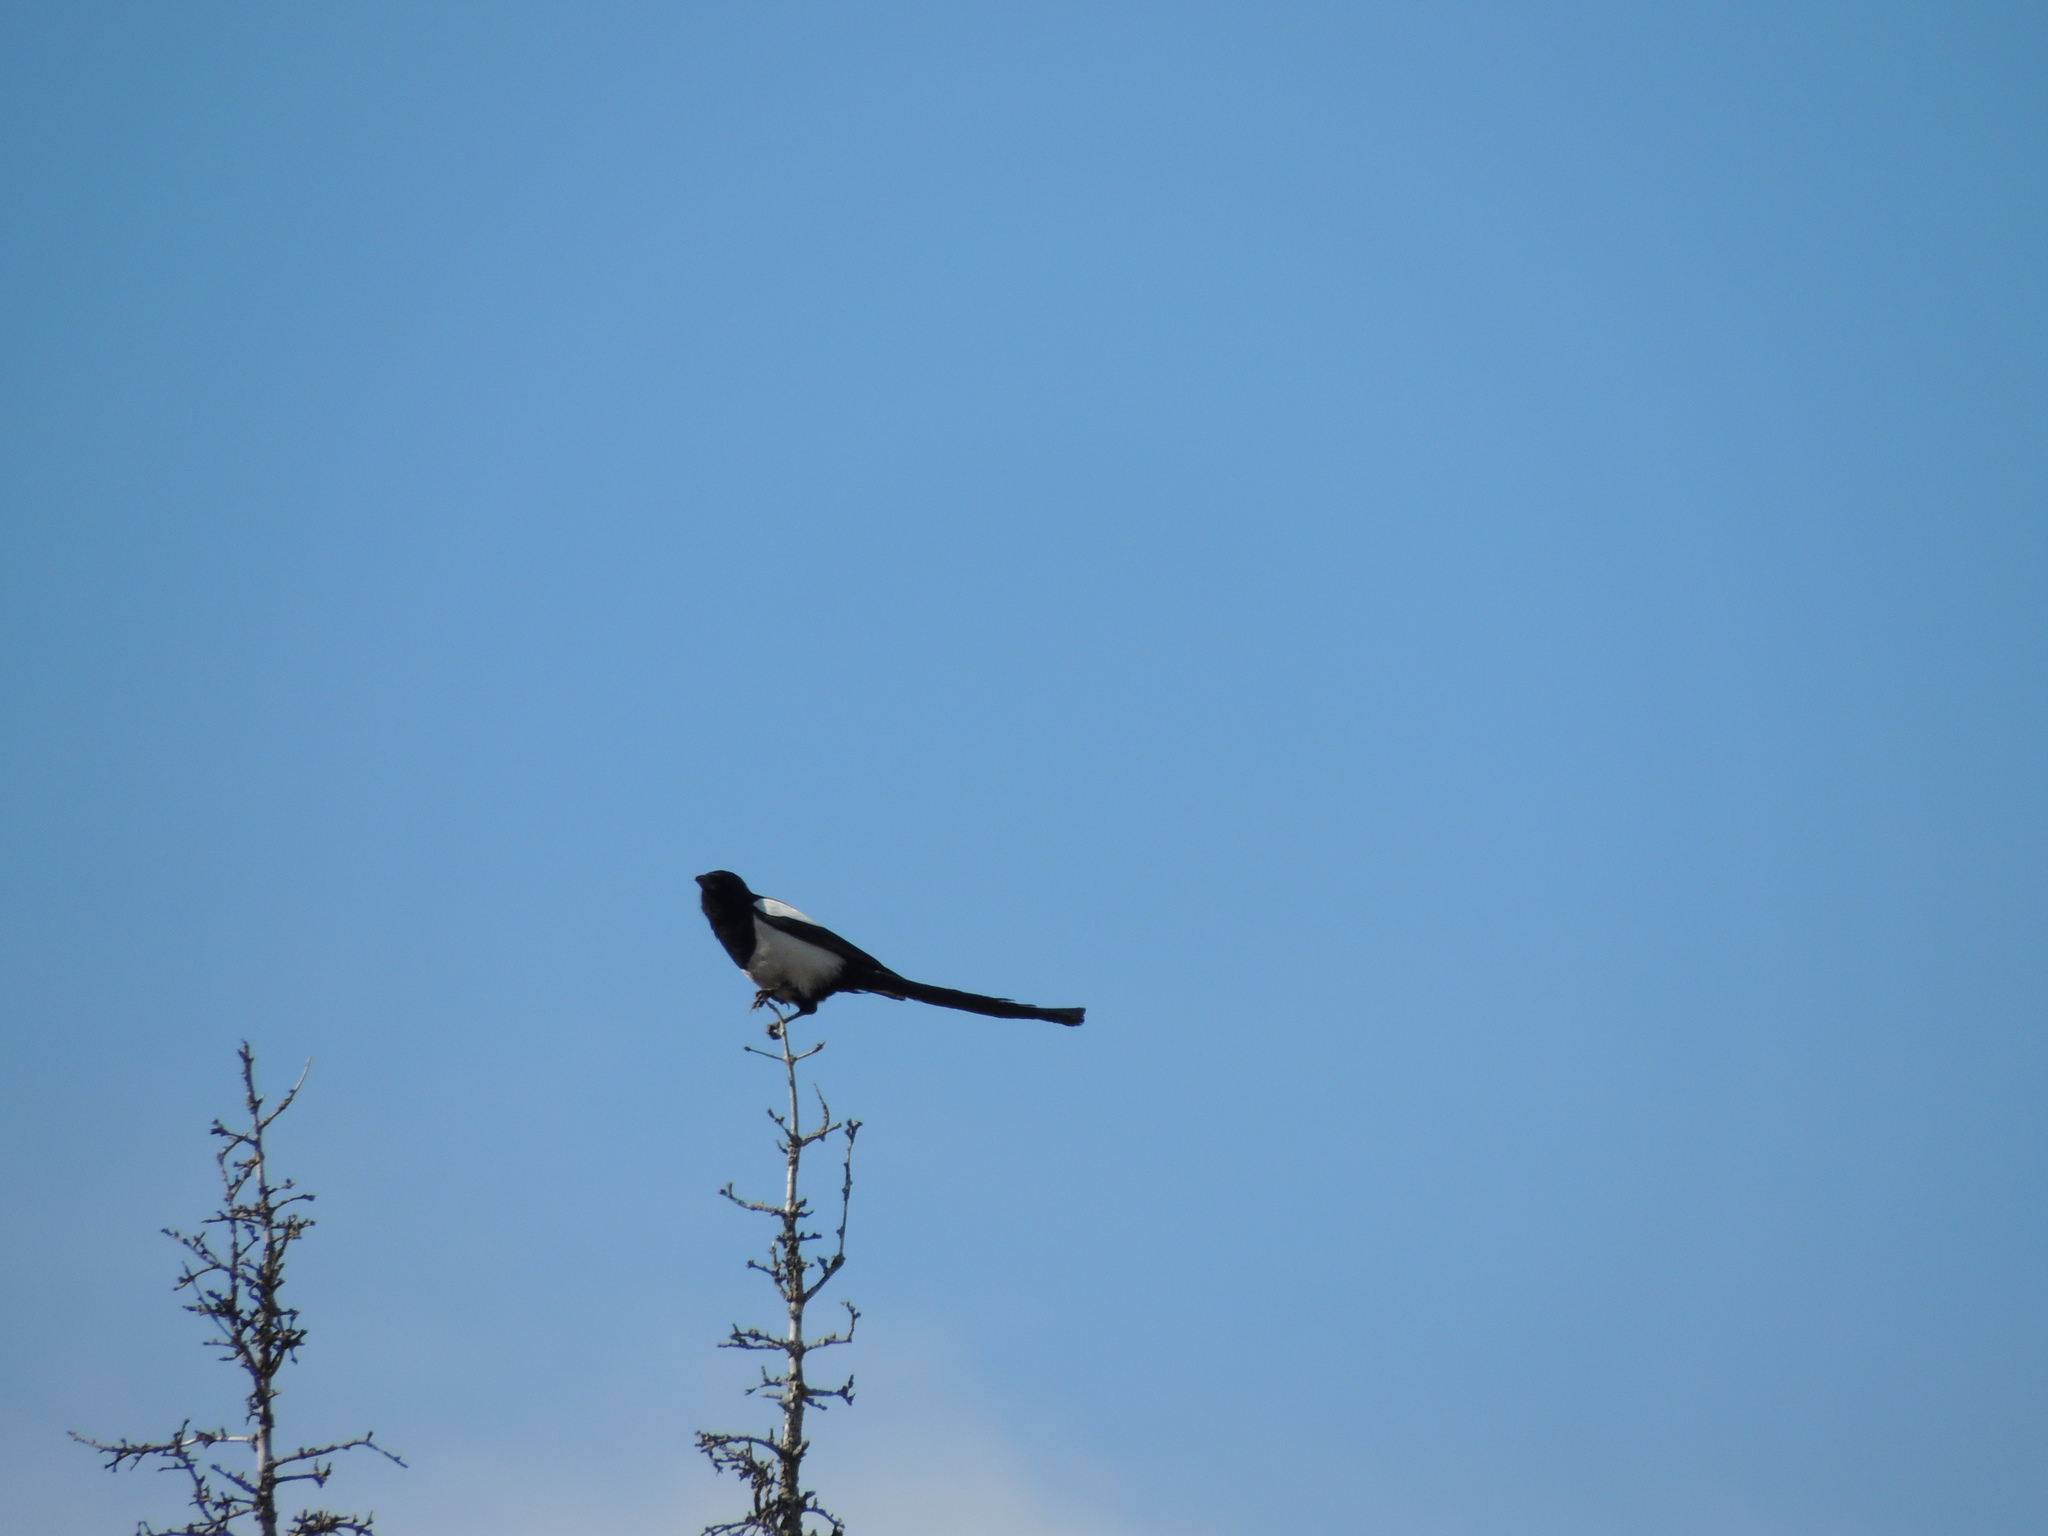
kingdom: Animalia
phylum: Chordata
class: Aves
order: Passeriformes
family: Corvidae
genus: Pica
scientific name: Pica pica
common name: Eurasian magpie
